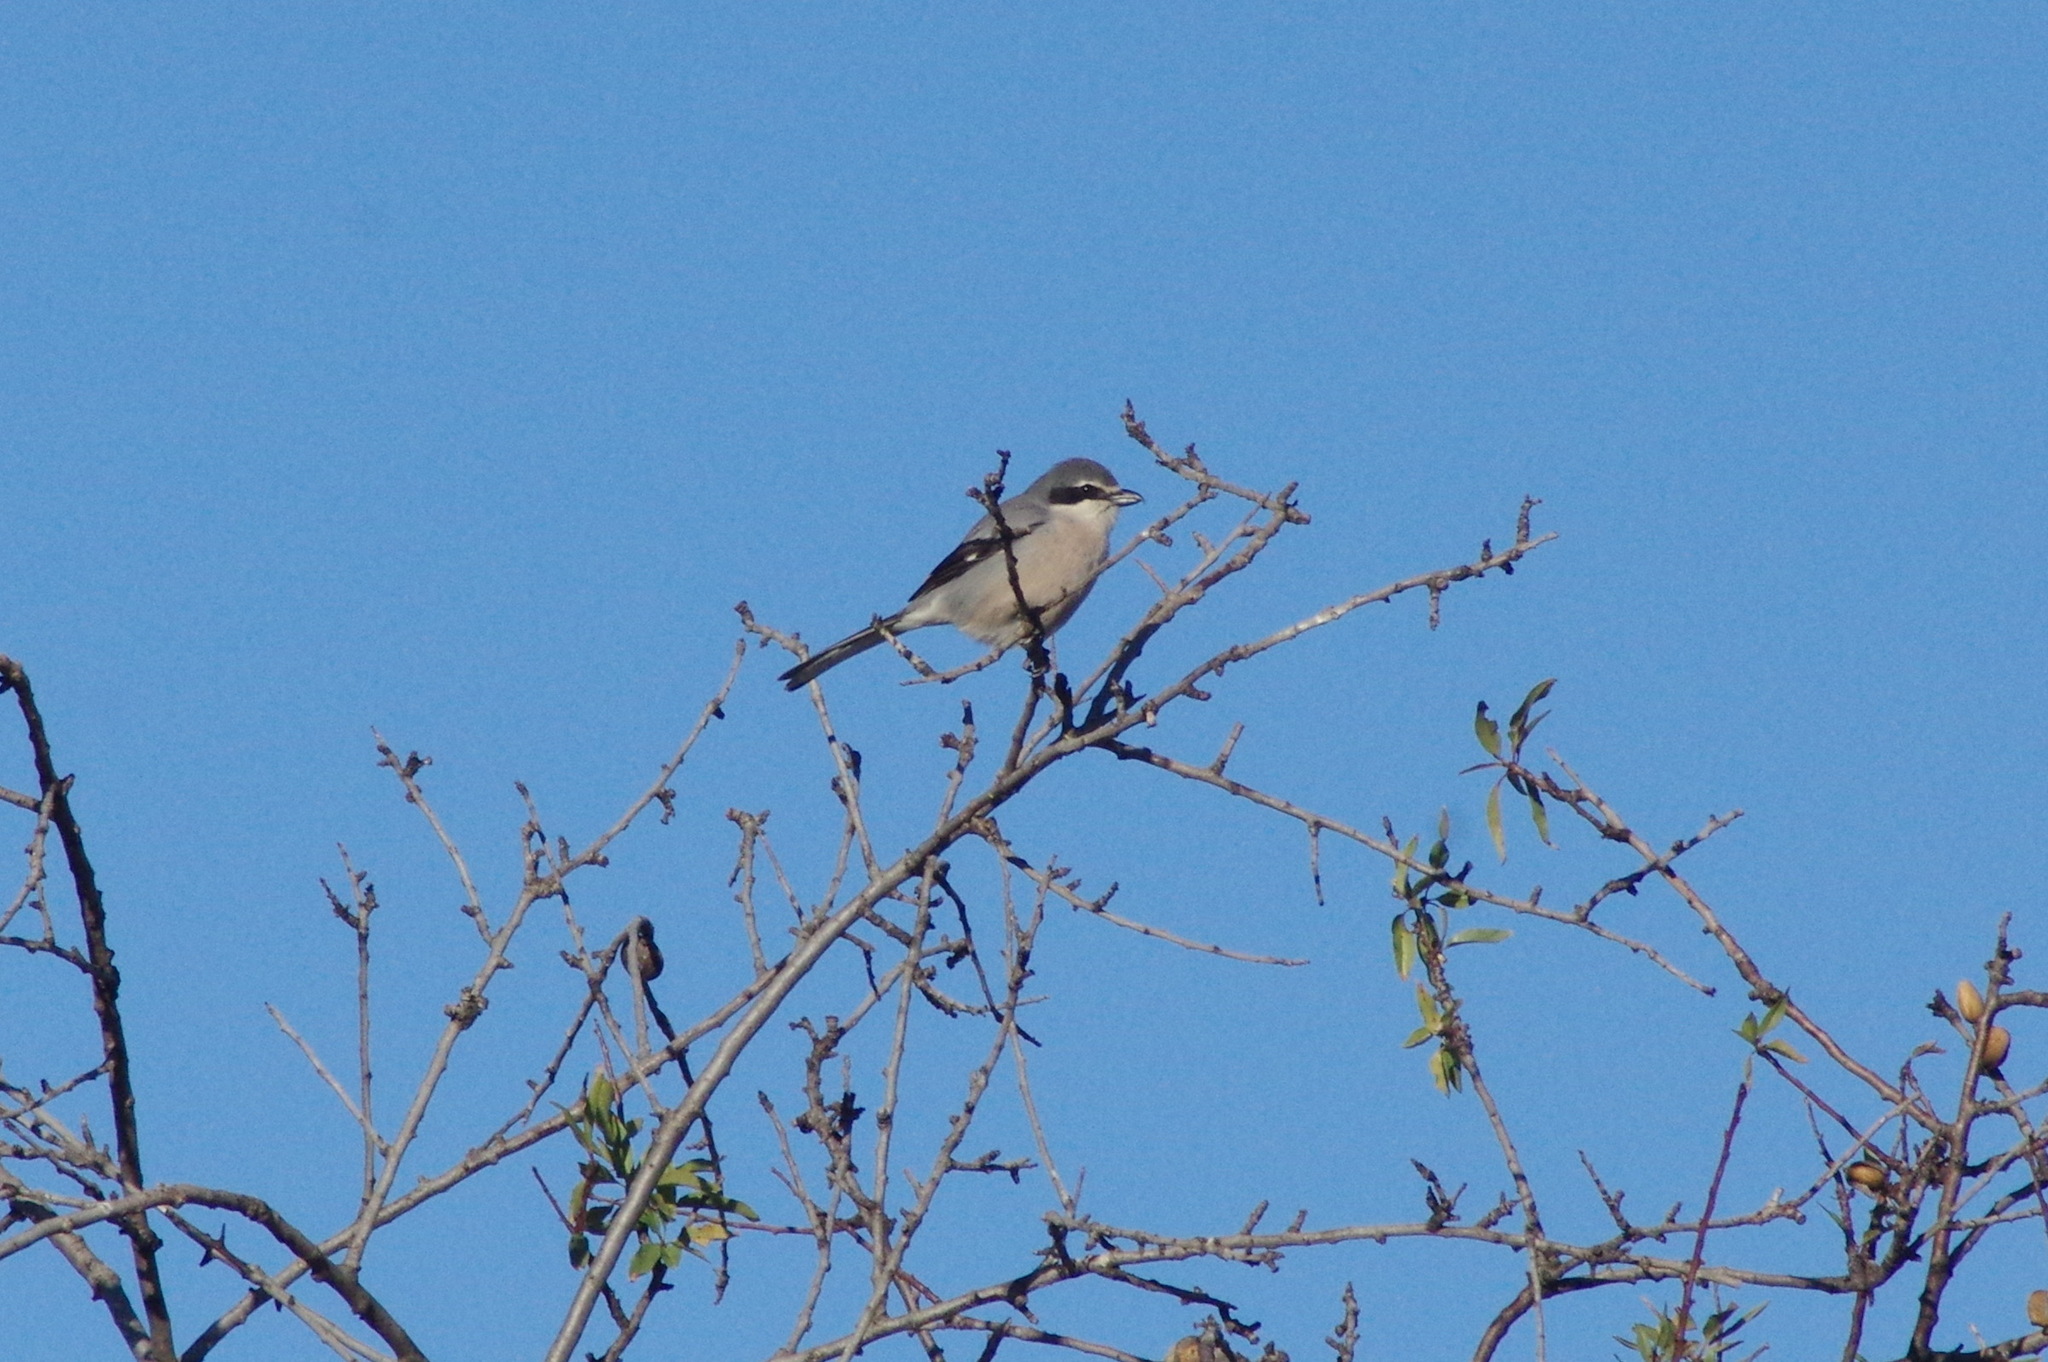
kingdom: Animalia
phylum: Chordata
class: Aves
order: Passeriformes
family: Laniidae
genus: Lanius
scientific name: Lanius meridionalis
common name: Iberian grey shrike
